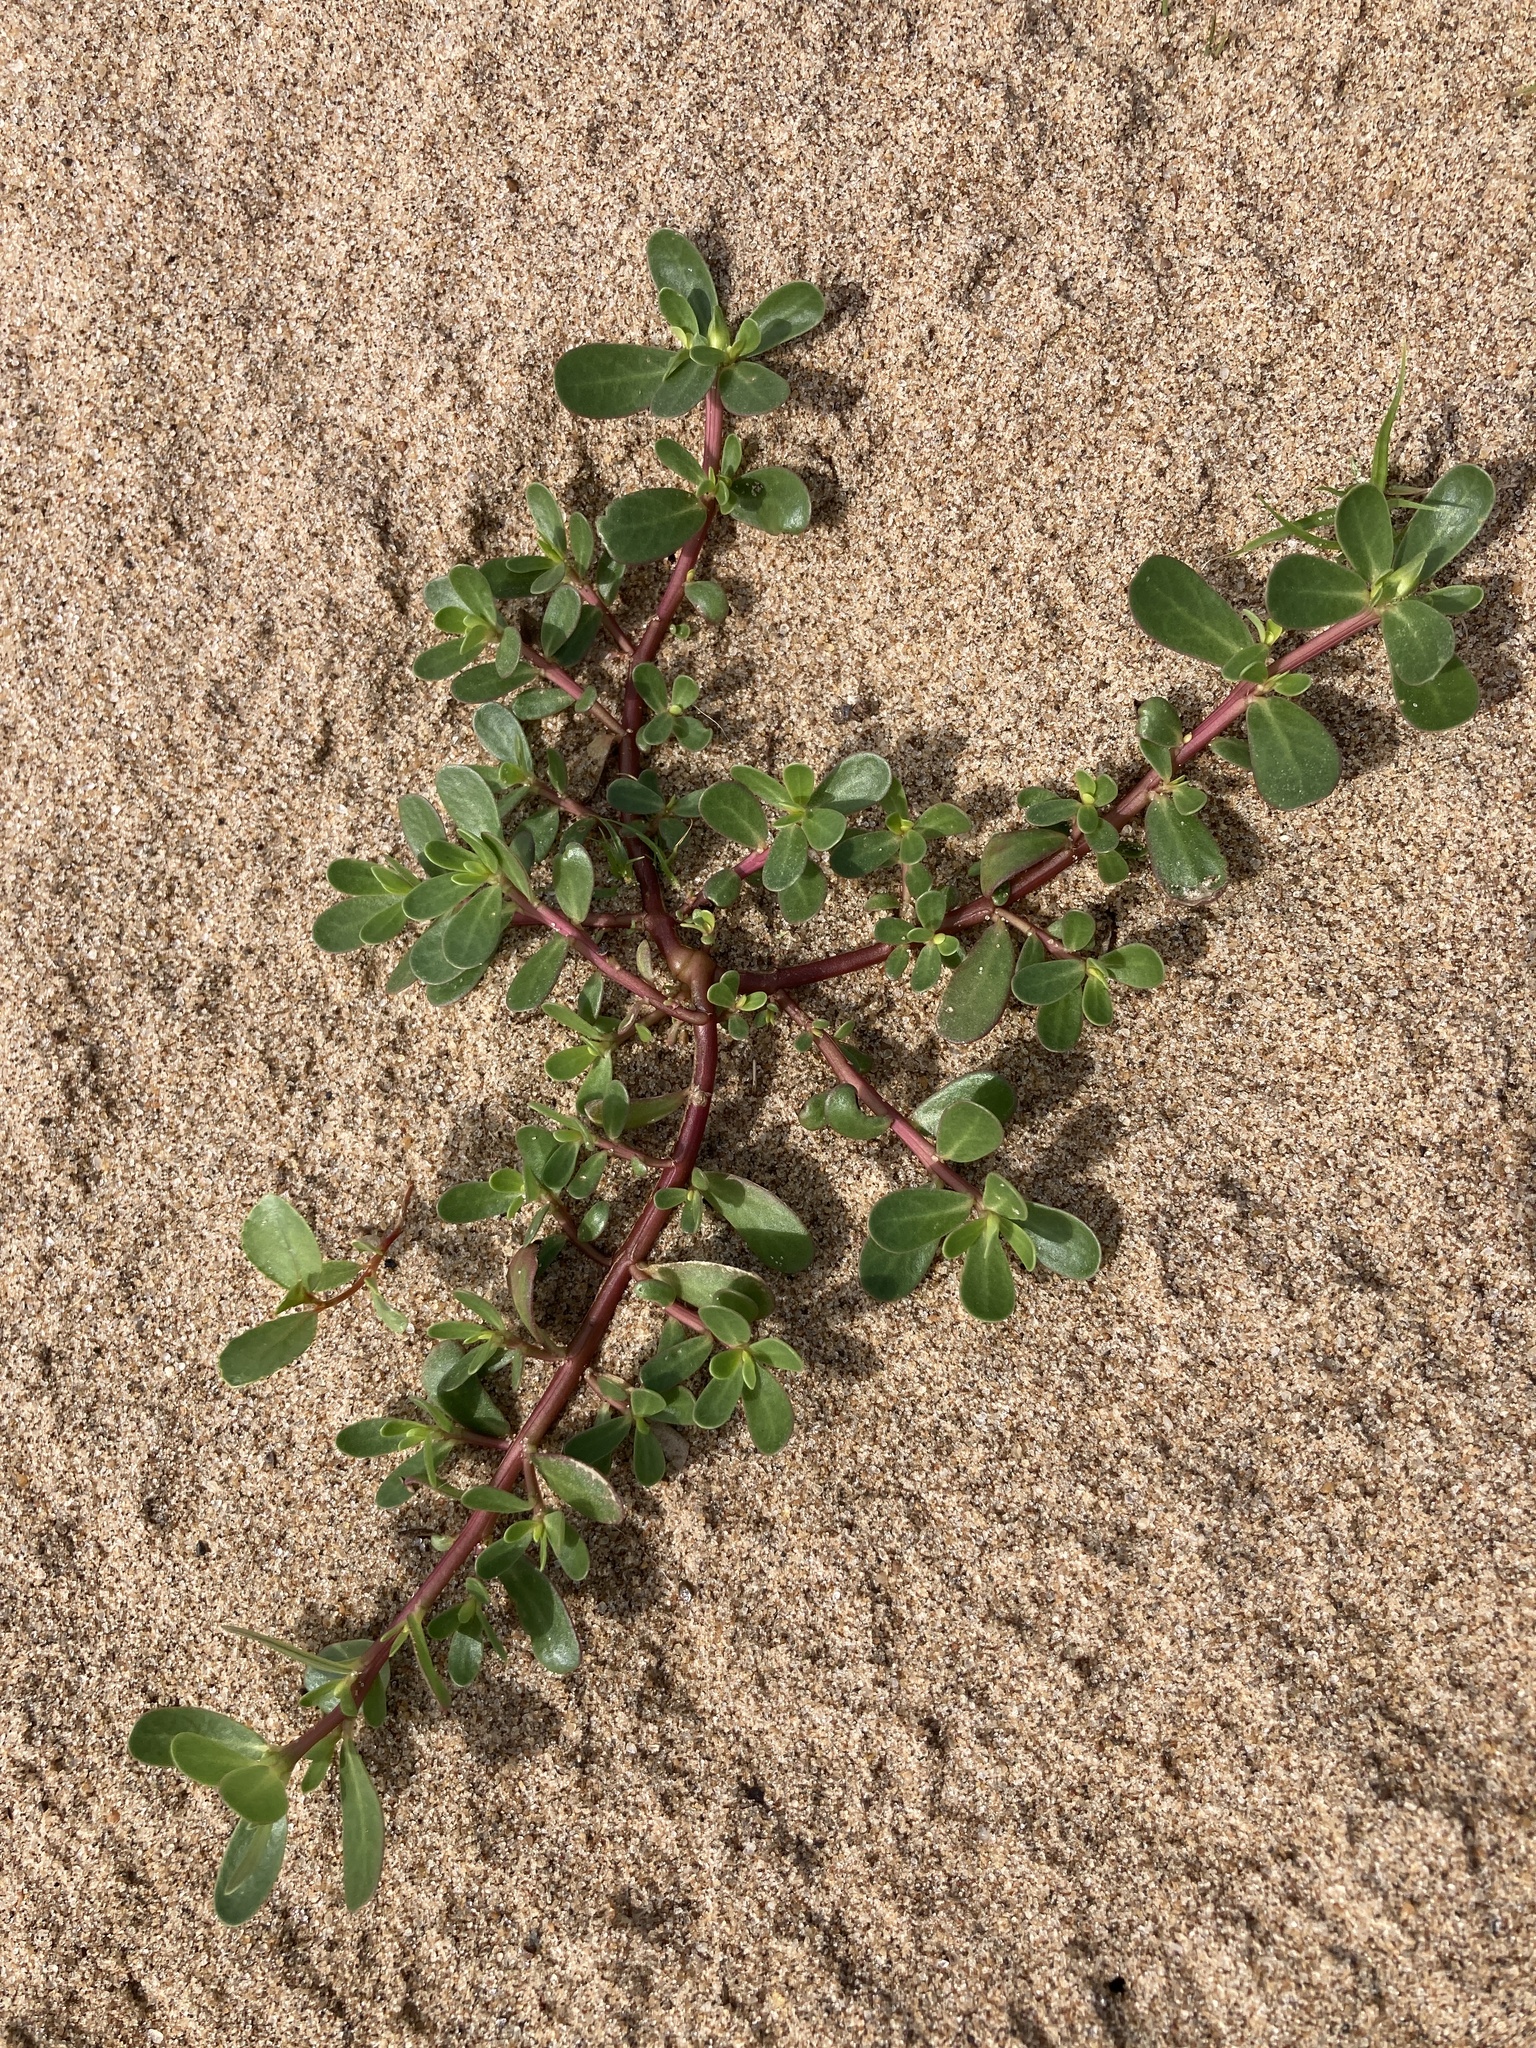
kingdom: Plantae
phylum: Tracheophyta
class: Magnoliopsida
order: Caryophyllales
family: Portulacaceae
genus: Portulaca
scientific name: Portulaca oleracea
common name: Common purslane
